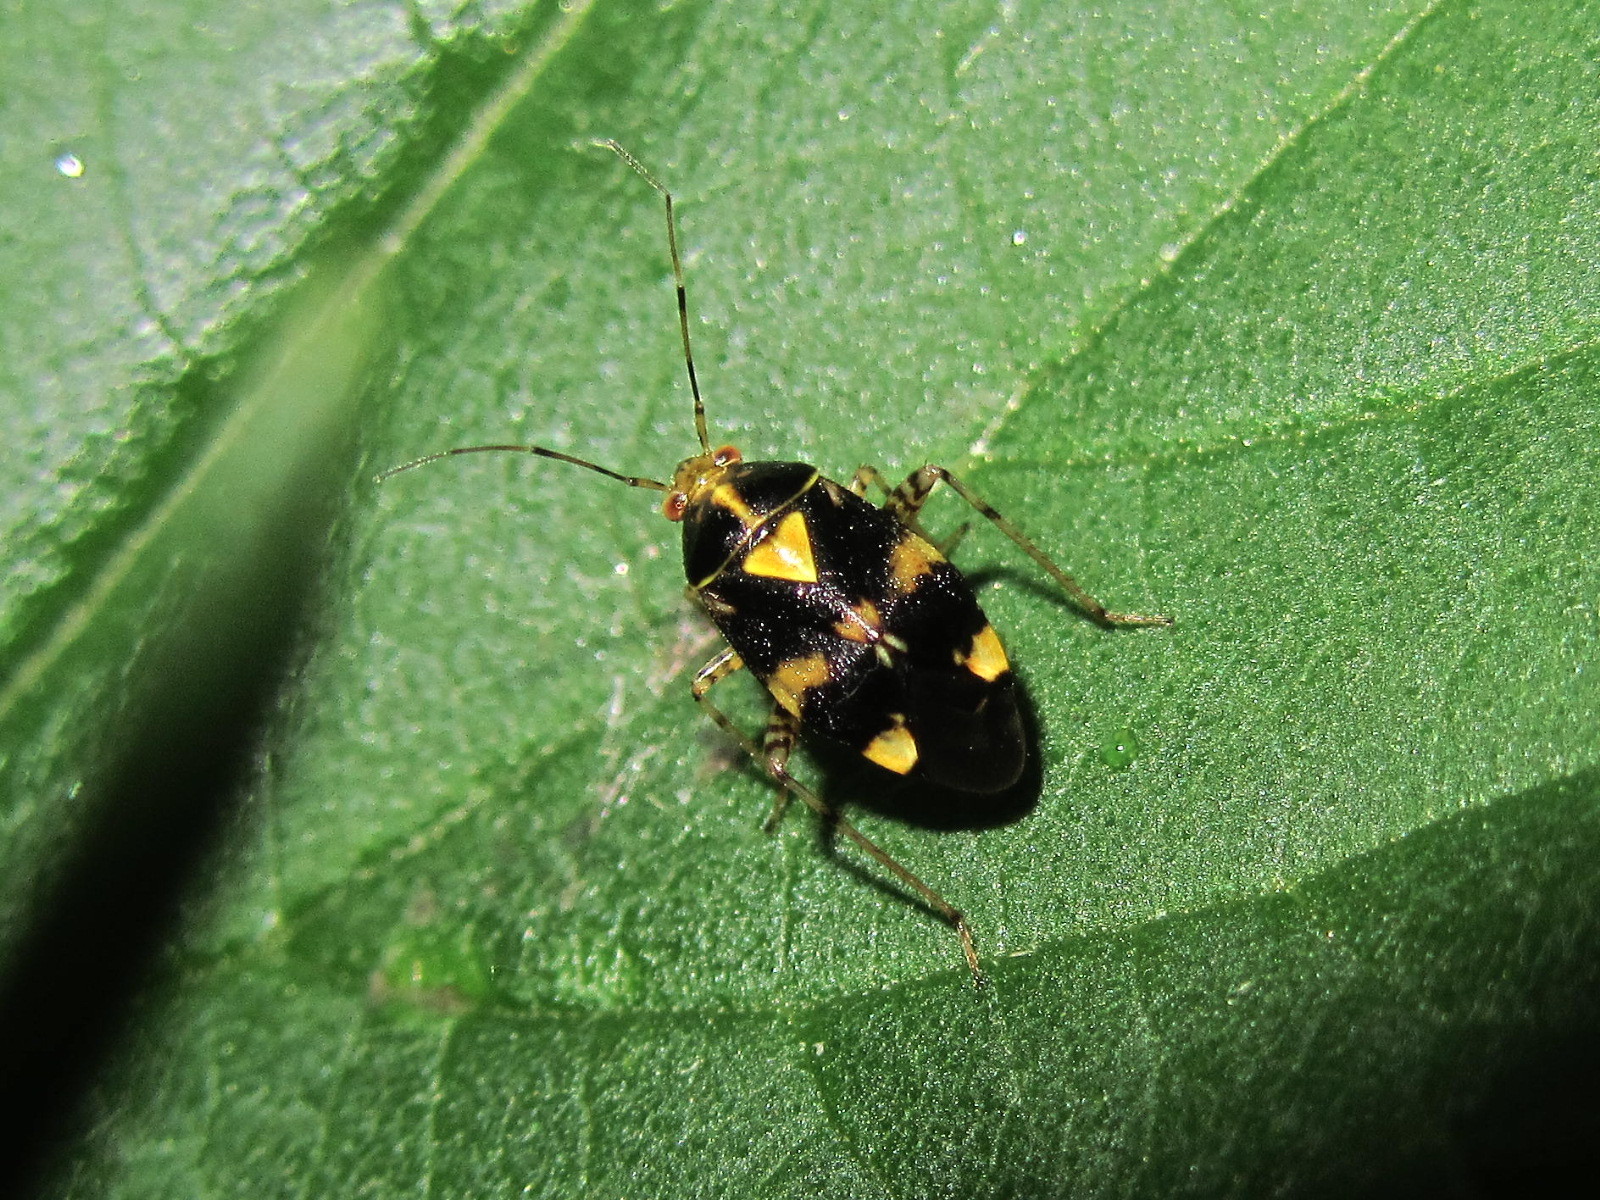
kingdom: Animalia
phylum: Arthropoda
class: Insecta
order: Hemiptera
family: Miridae
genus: Liocoris
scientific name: Liocoris tripustulatus
